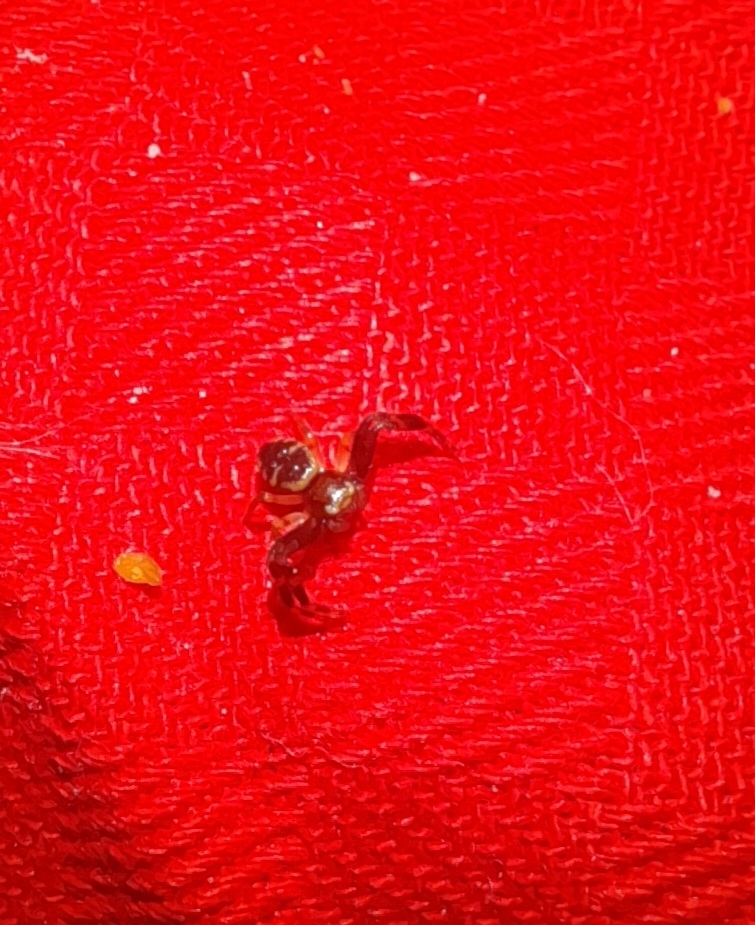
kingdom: Animalia
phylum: Arthropoda
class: Arachnida
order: Araneae
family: Thomisidae
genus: Synema
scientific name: Synema globosum
